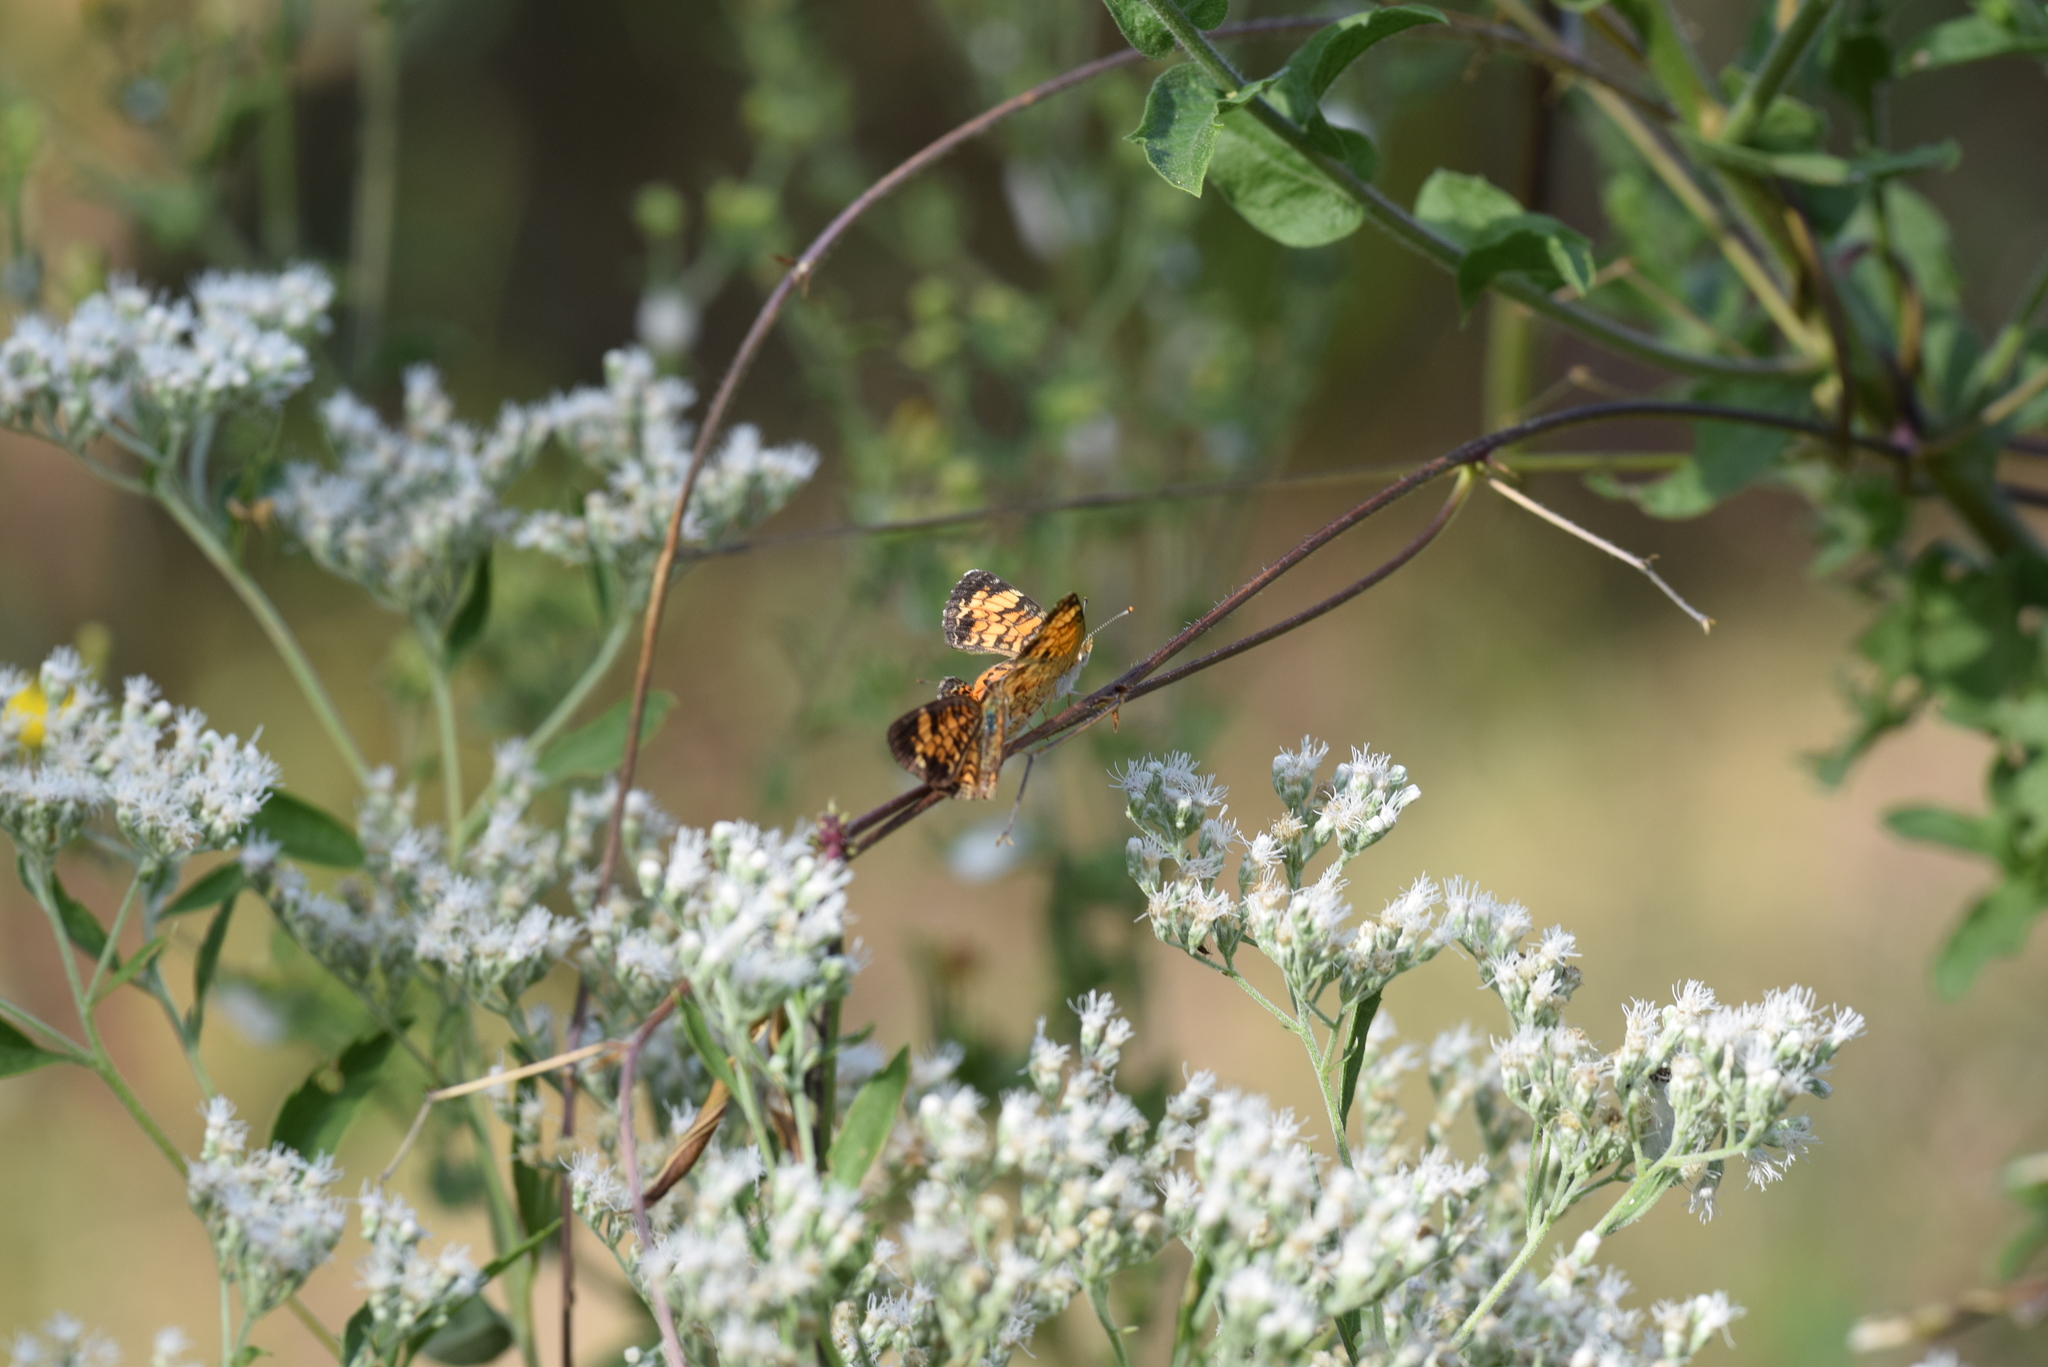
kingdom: Animalia
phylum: Arthropoda
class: Insecta
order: Lepidoptera
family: Nymphalidae
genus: Phyciodes
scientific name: Phyciodes tharos
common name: Pearl crescent
